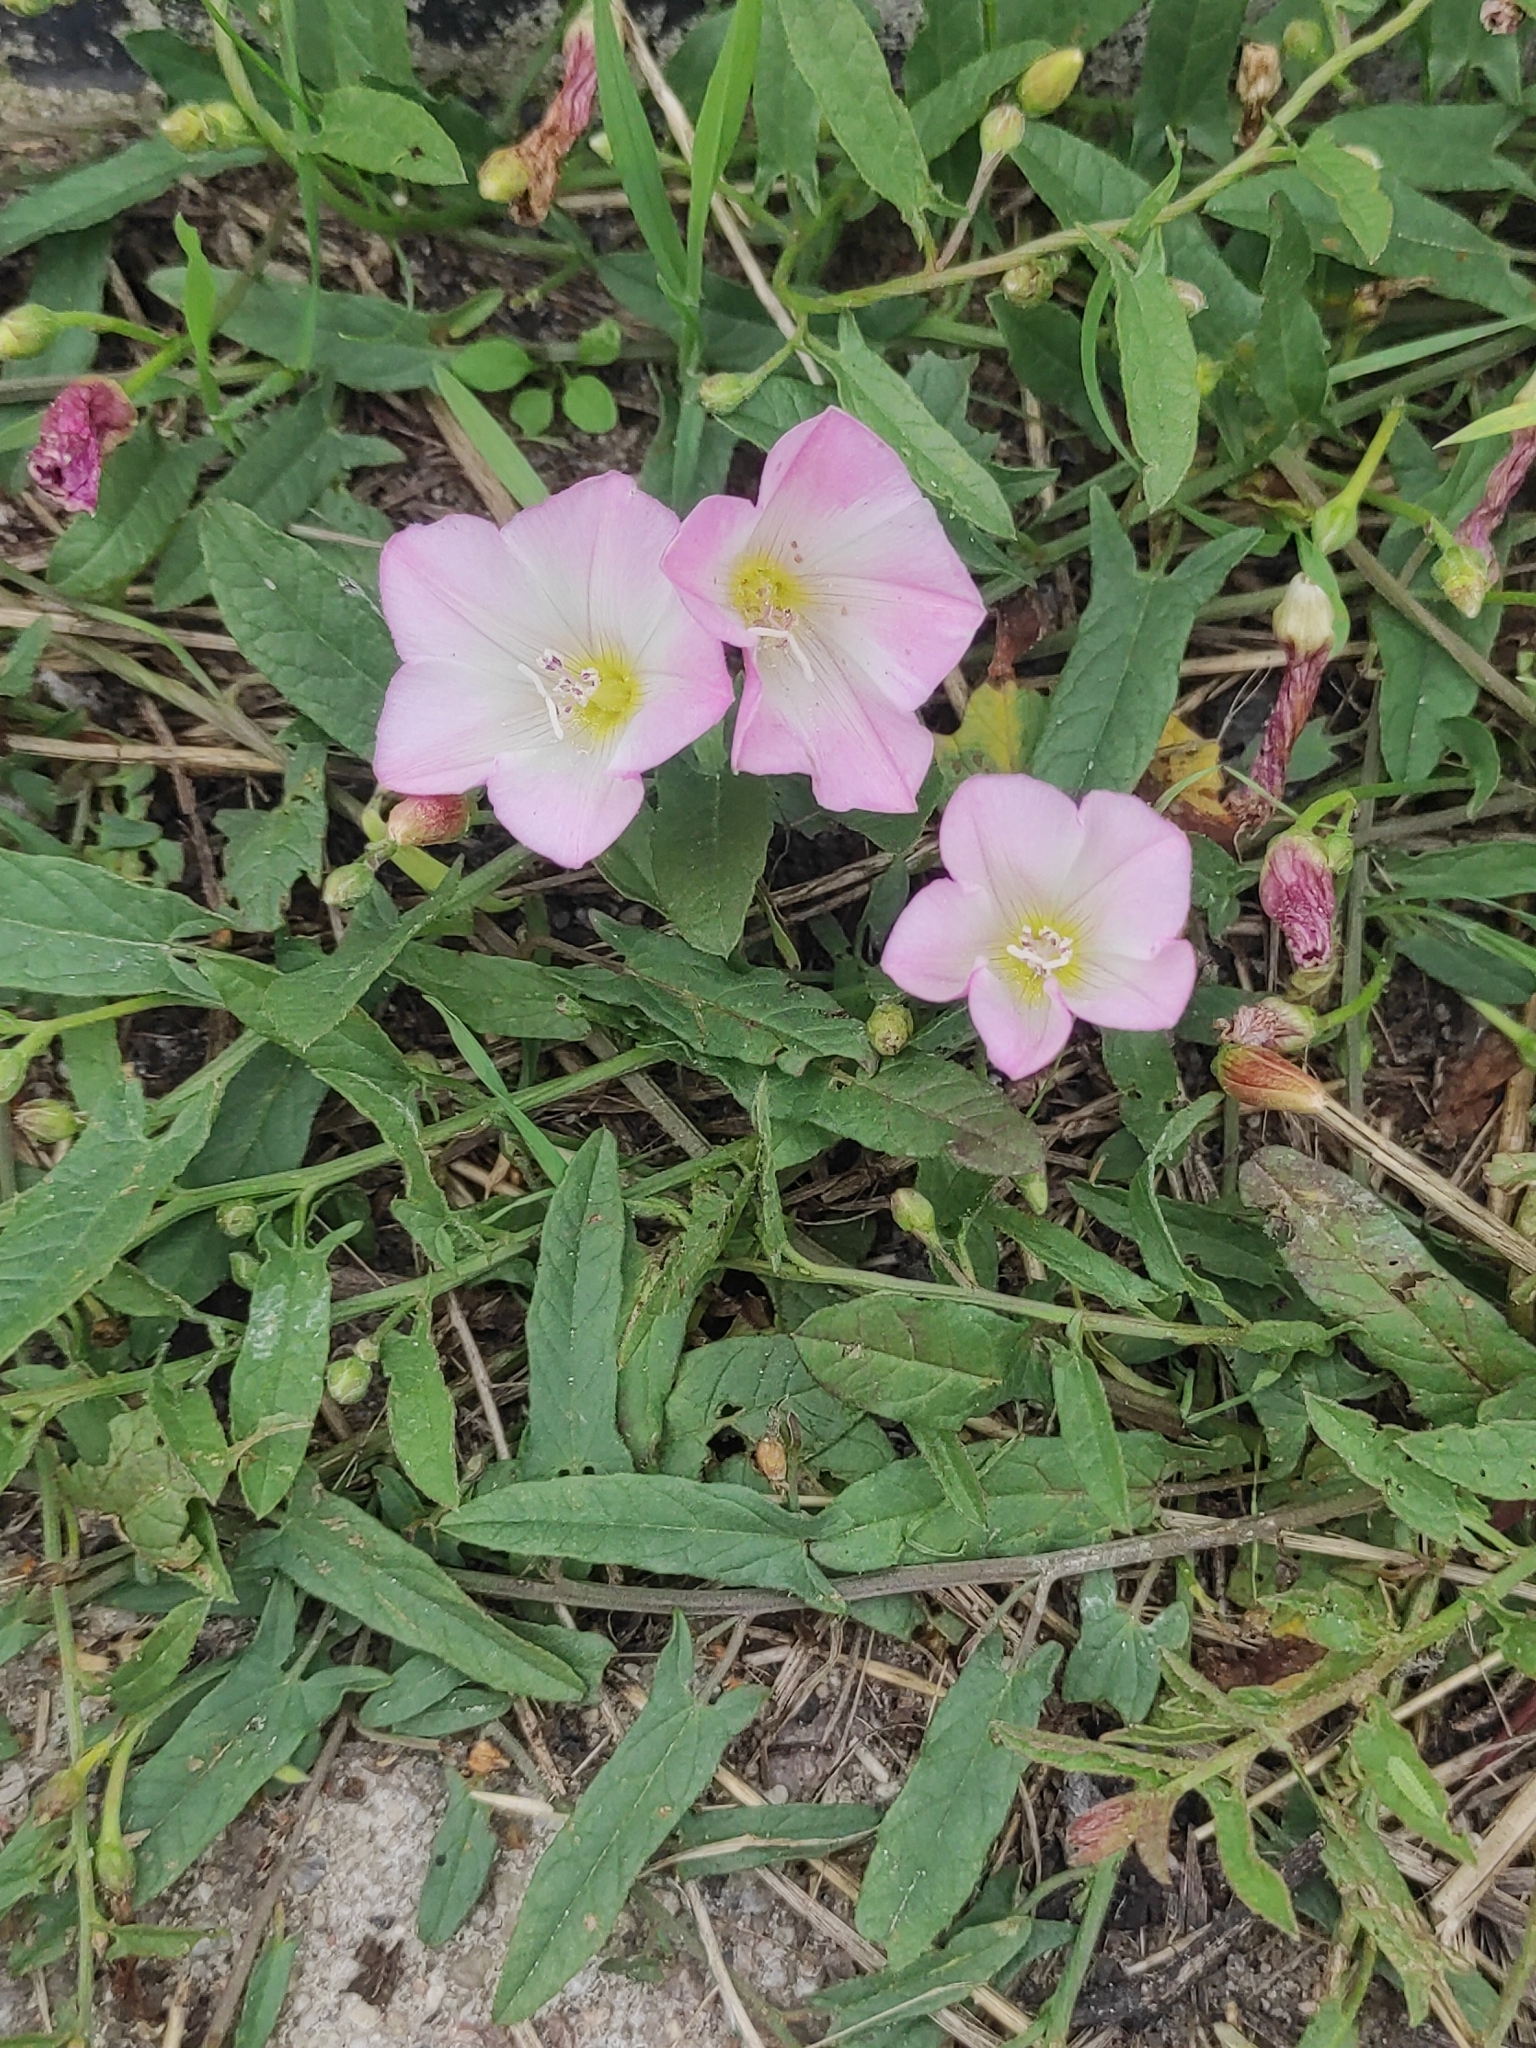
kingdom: Plantae
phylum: Tracheophyta
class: Magnoliopsida
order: Solanales
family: Convolvulaceae
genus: Convolvulus
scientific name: Convolvulus arvensis
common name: Field bindweed
